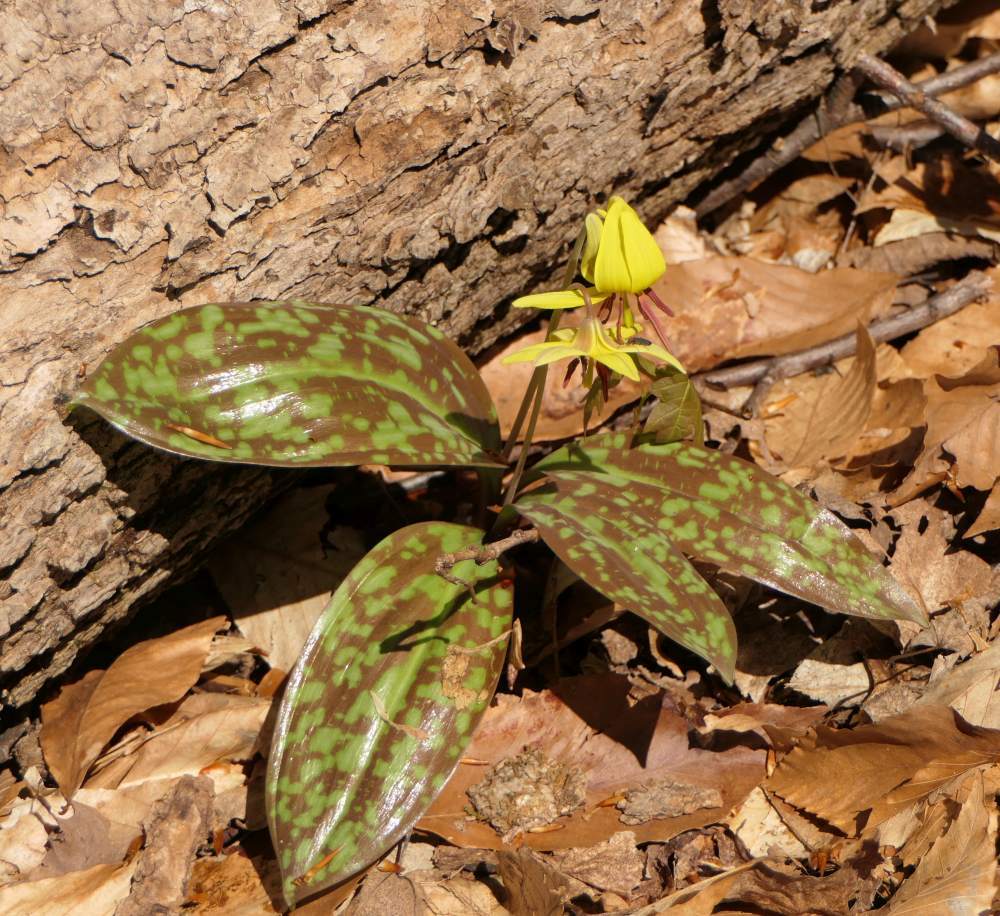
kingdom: Plantae
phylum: Tracheophyta
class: Liliopsida
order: Liliales
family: Liliaceae
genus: Erythronium
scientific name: Erythronium americanum
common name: Yellow adder's-tongue
